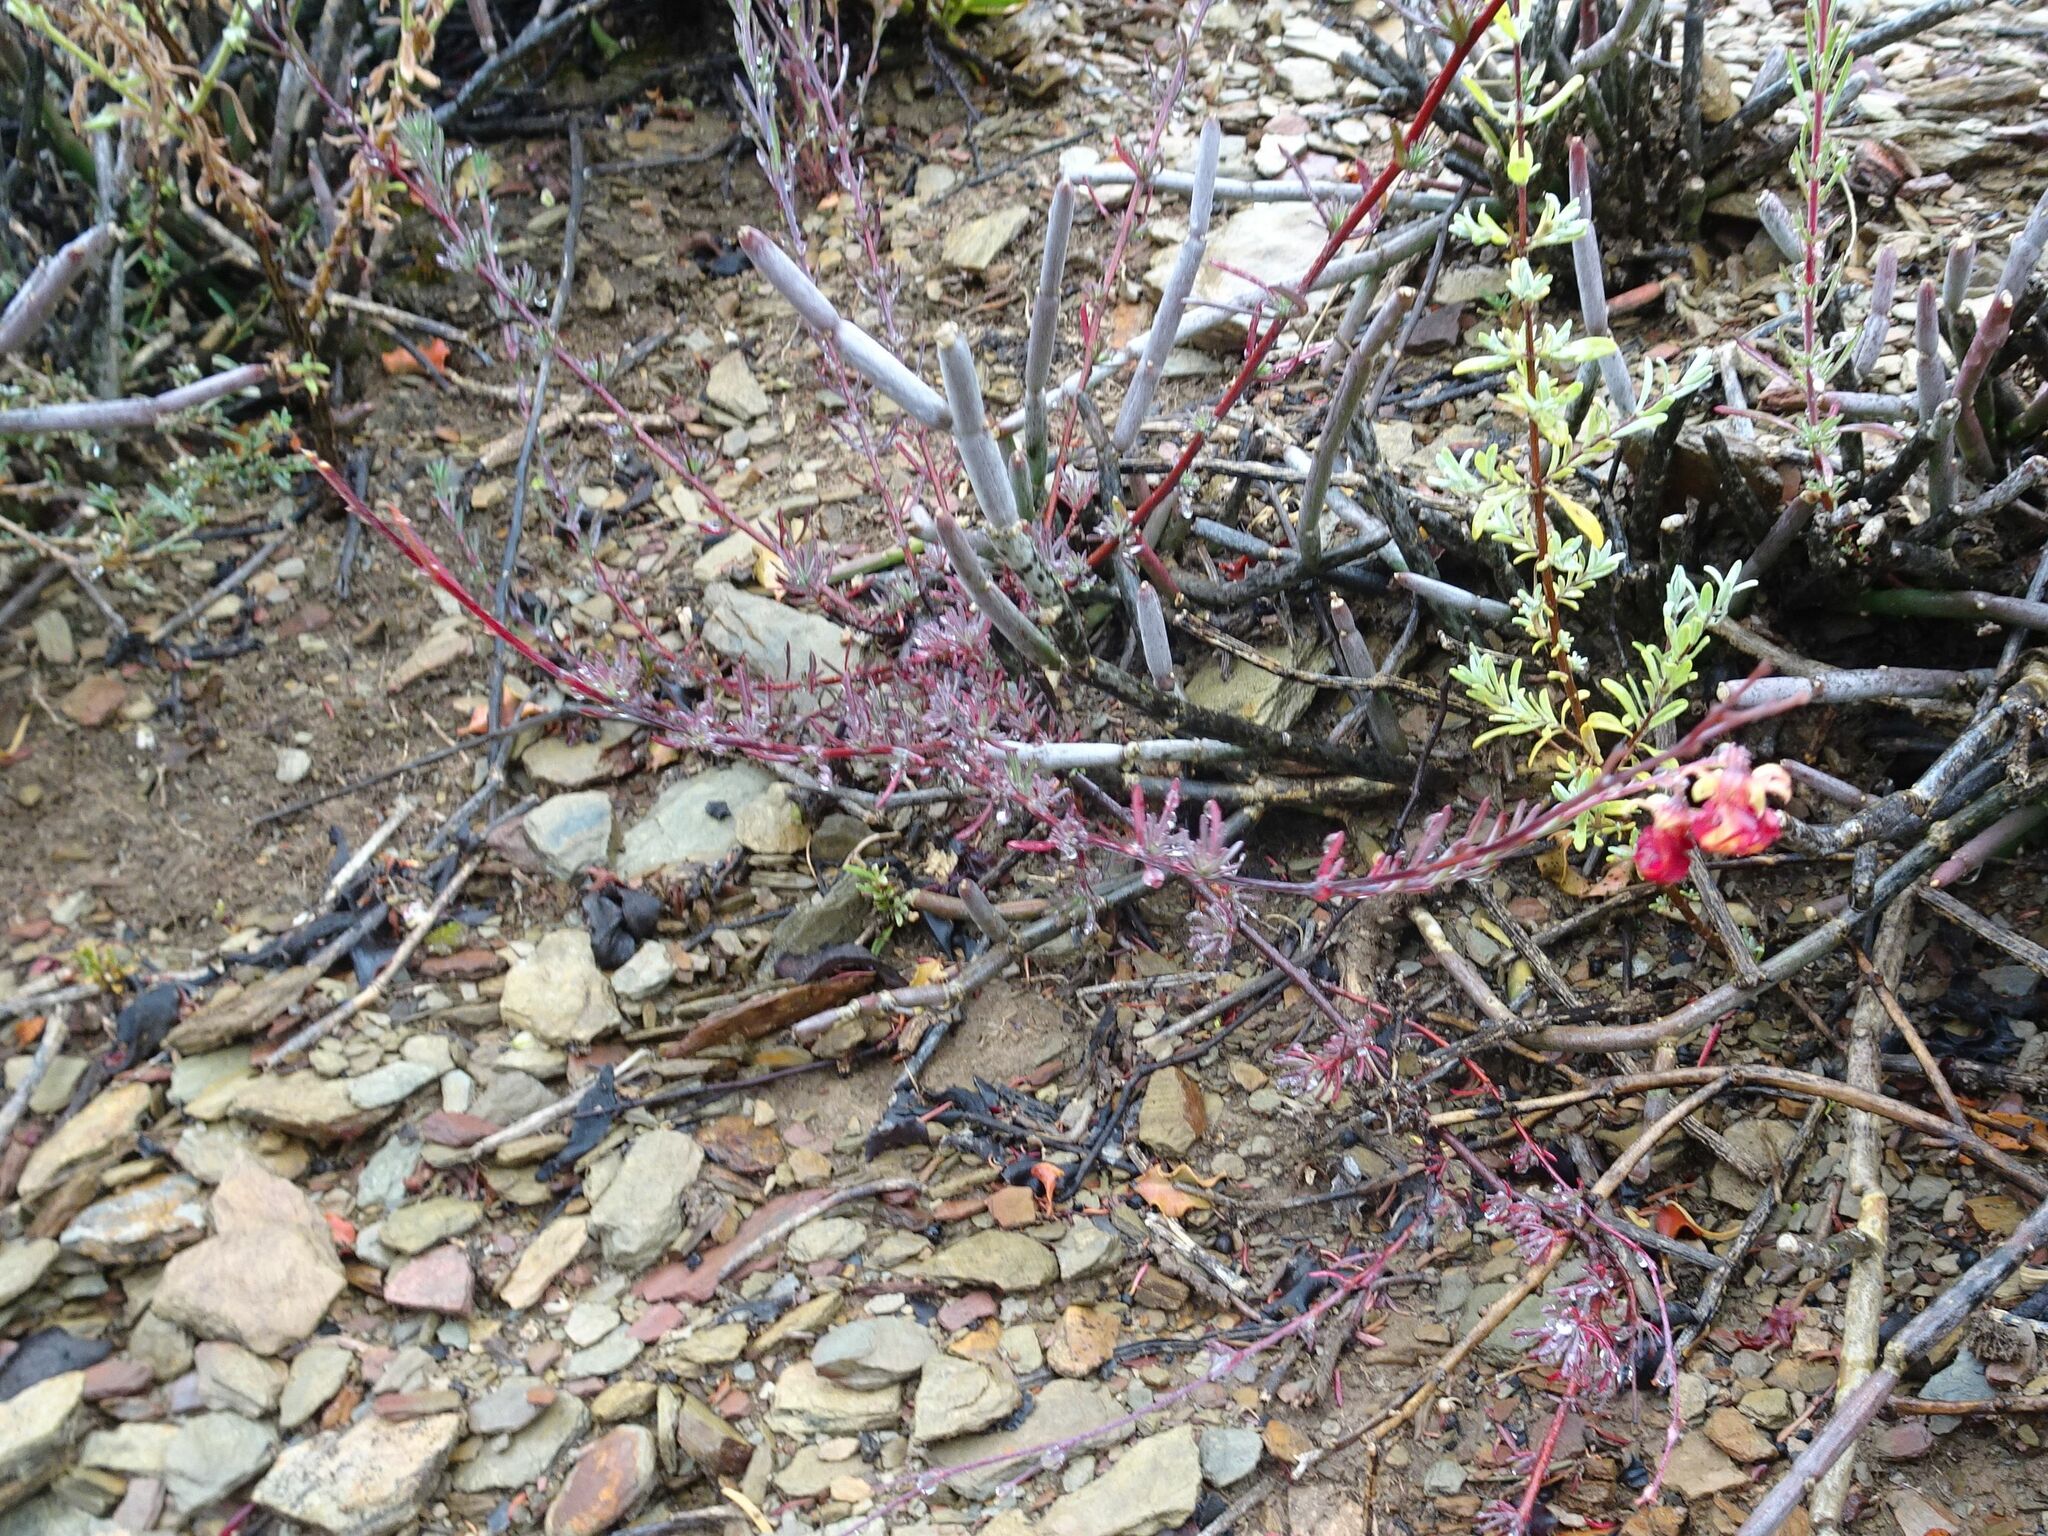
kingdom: Plantae
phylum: Tracheophyta
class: Magnoliopsida
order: Malvales
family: Malvaceae
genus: Hermannia
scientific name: Hermannia filifolia
